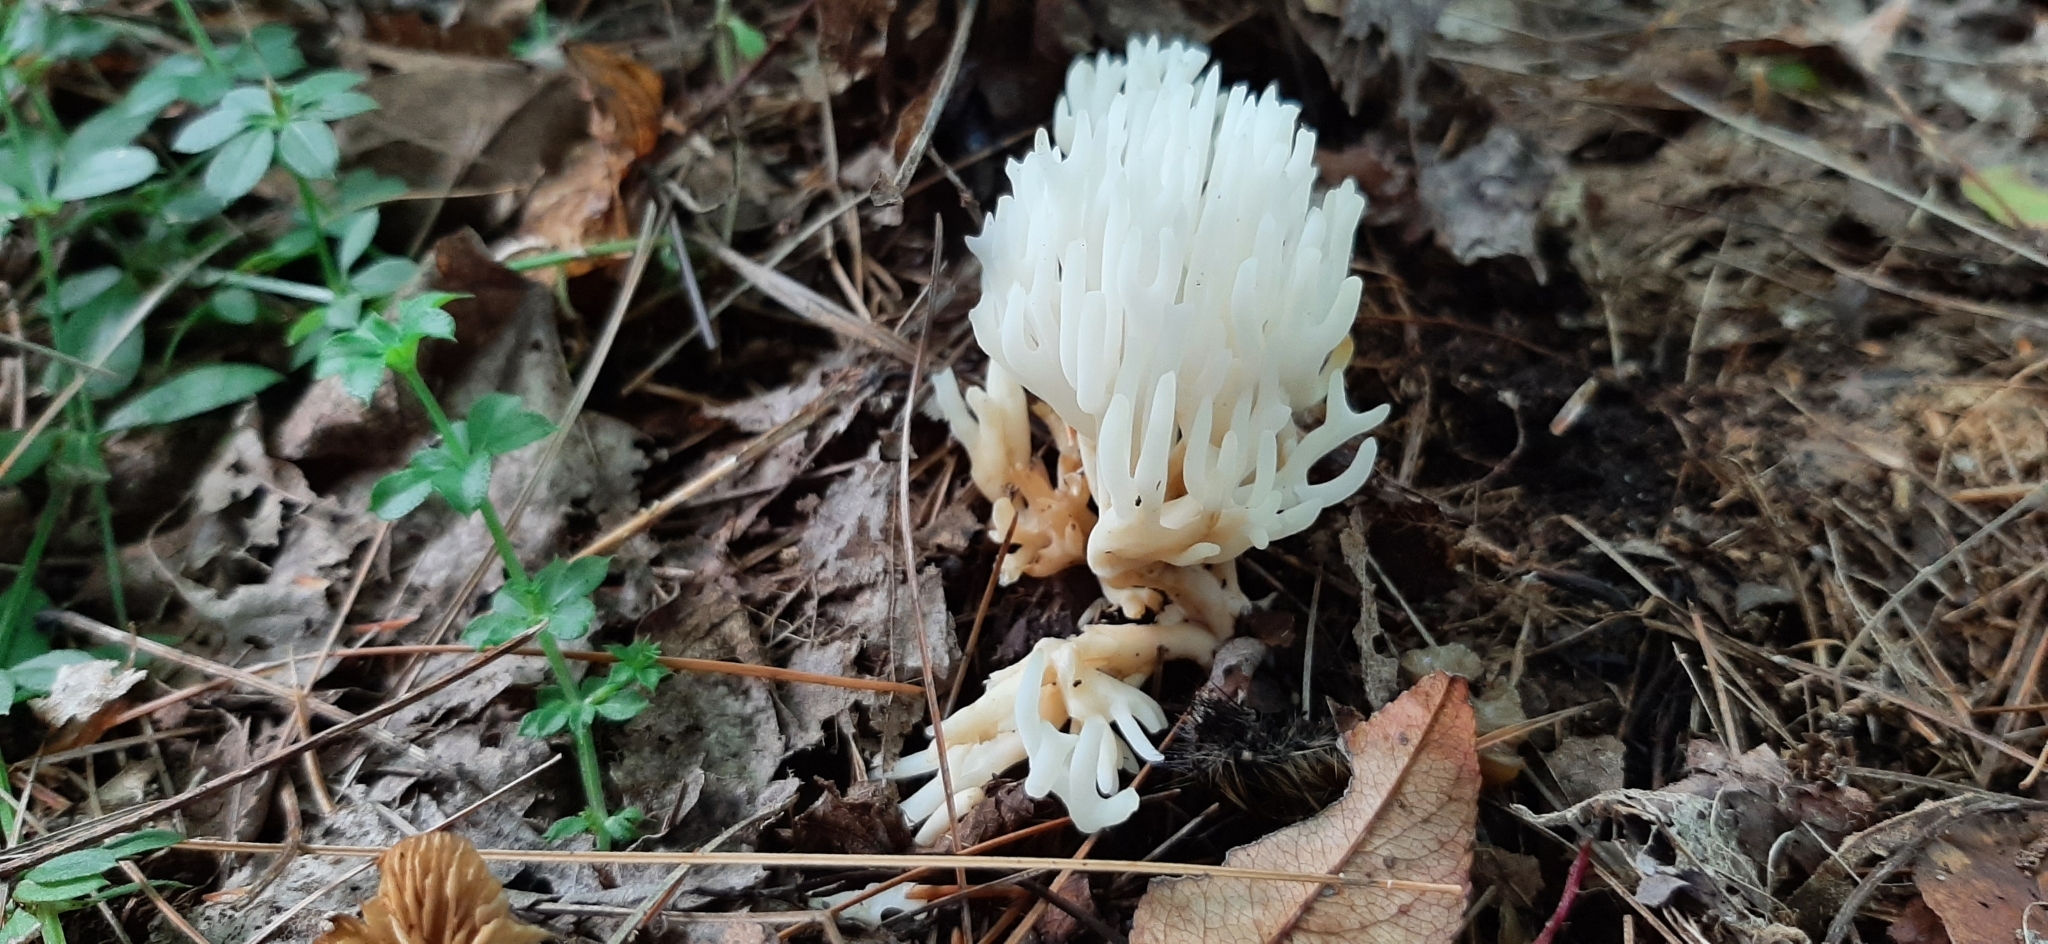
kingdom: Fungi
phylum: Basidiomycota
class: Agaricomycetes
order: Agaricales
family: Clavariaceae
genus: Ramariopsis
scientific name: Ramariopsis kunzei
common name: Ivory coral
